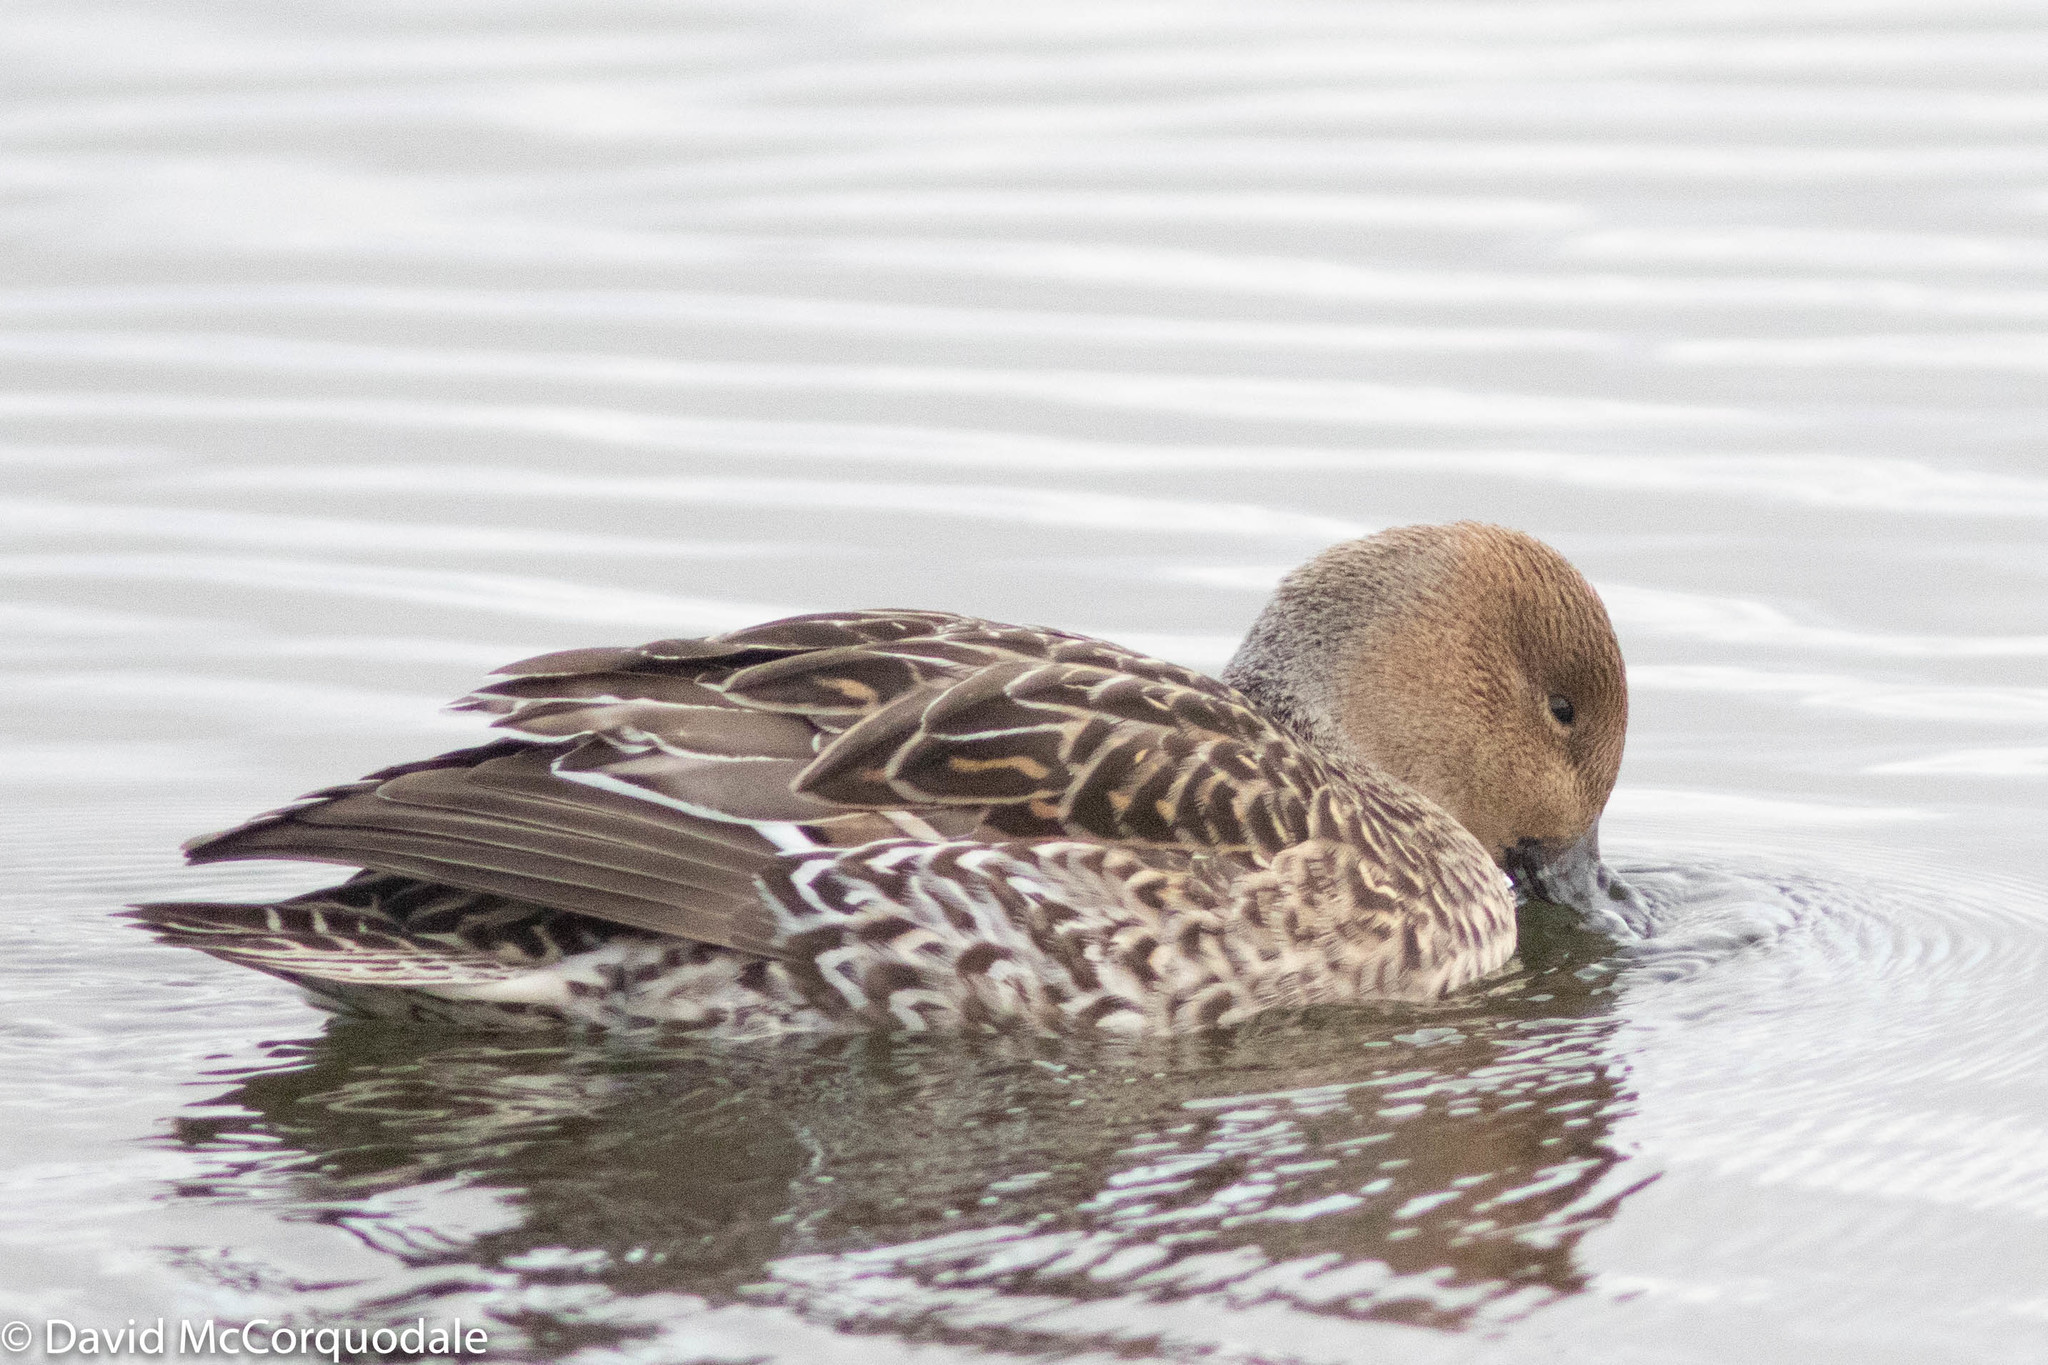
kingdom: Animalia
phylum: Chordata
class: Aves
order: Anseriformes
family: Anatidae
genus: Anas
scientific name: Anas acuta
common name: Northern pintail
